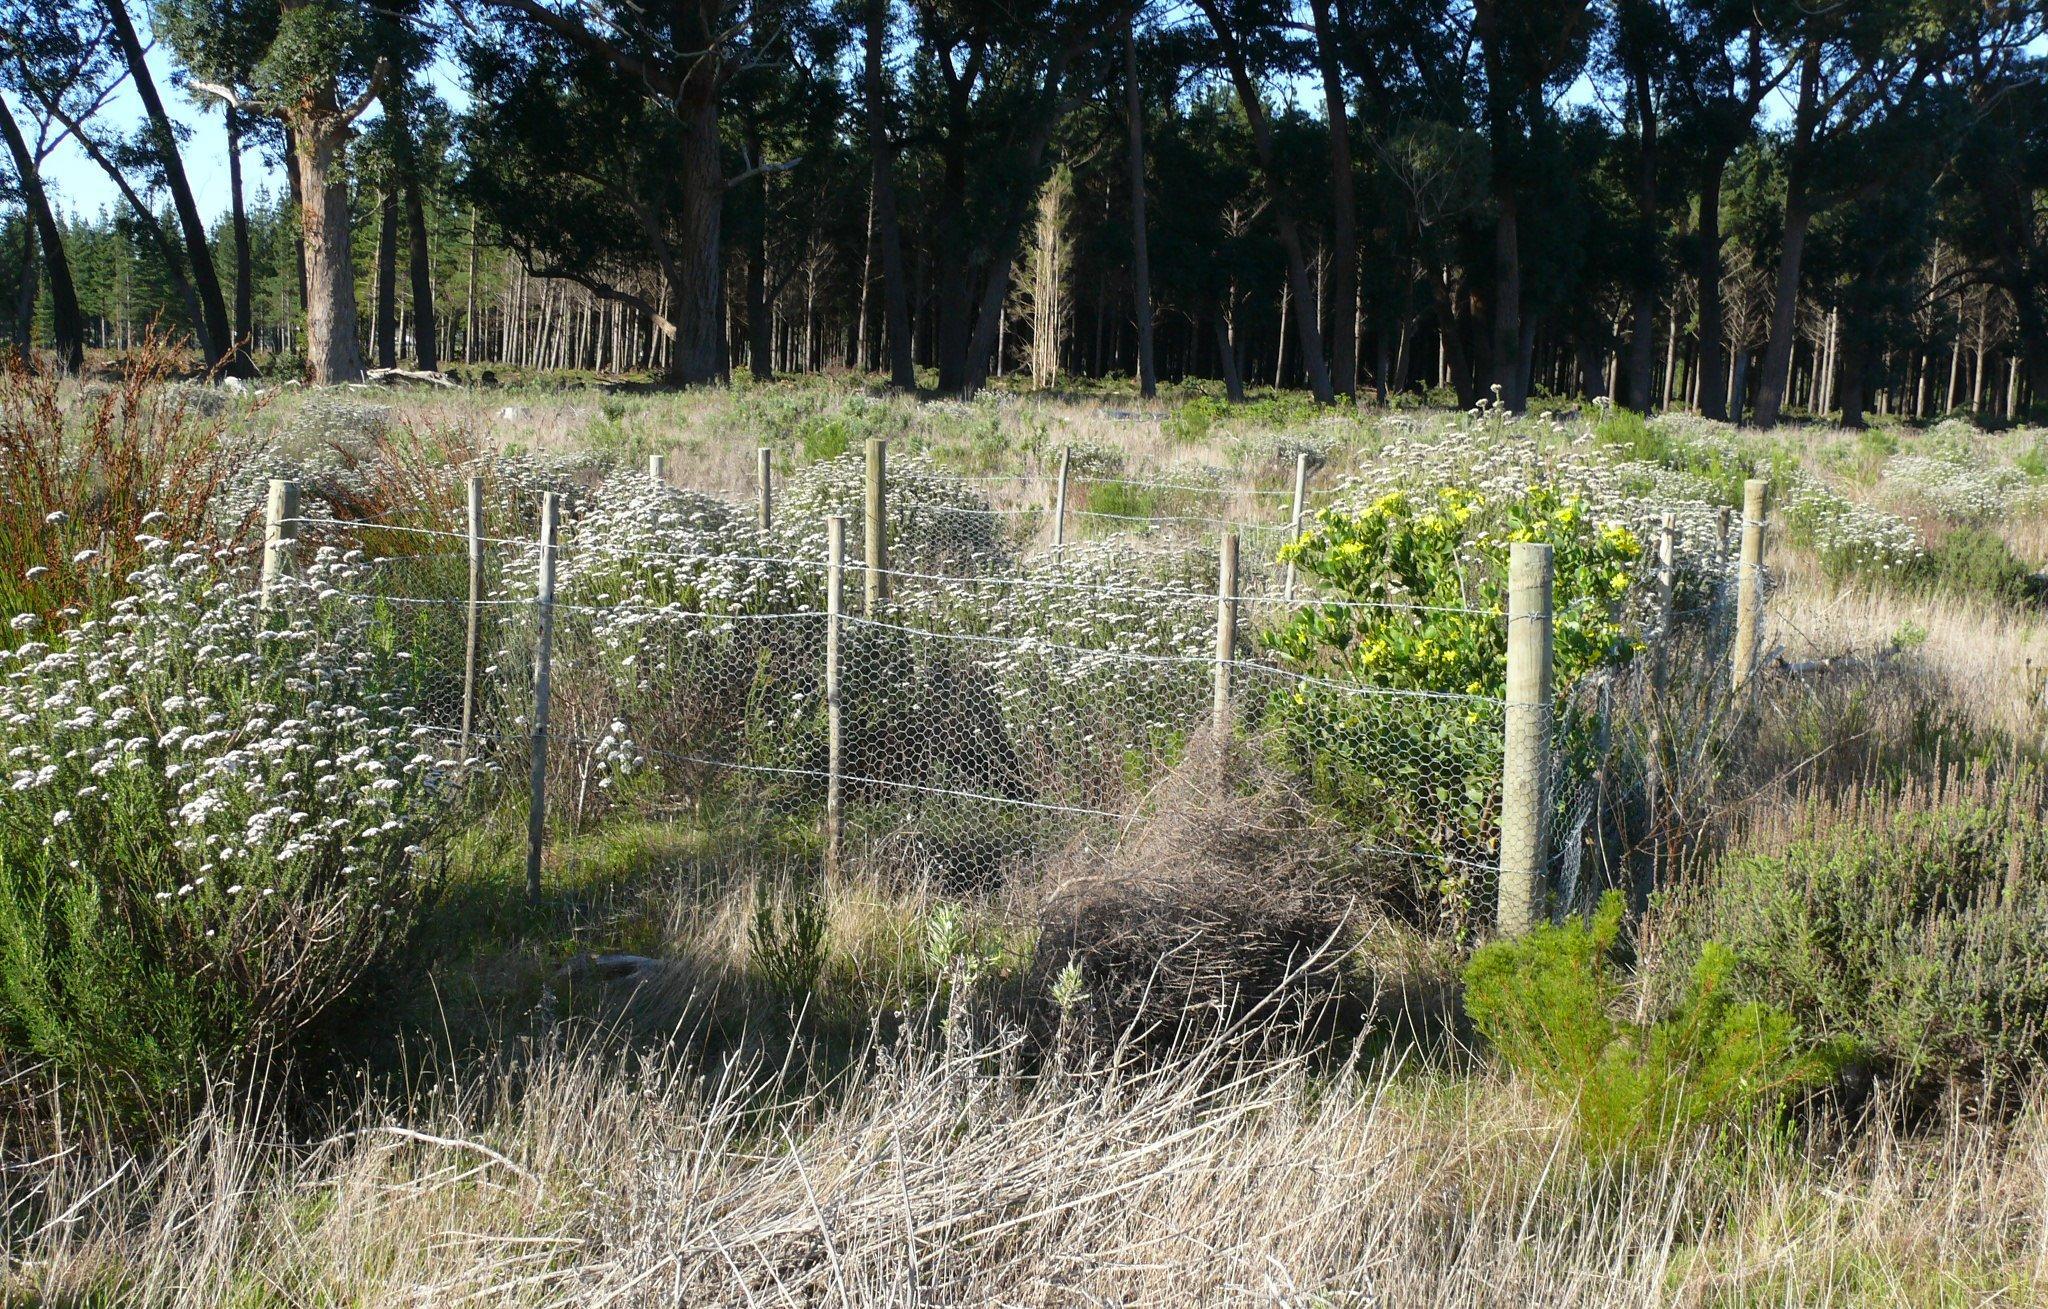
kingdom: Plantae
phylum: Tracheophyta
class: Magnoliopsida
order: Asterales
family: Asteraceae
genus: Metalasia
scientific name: Metalasia densa
